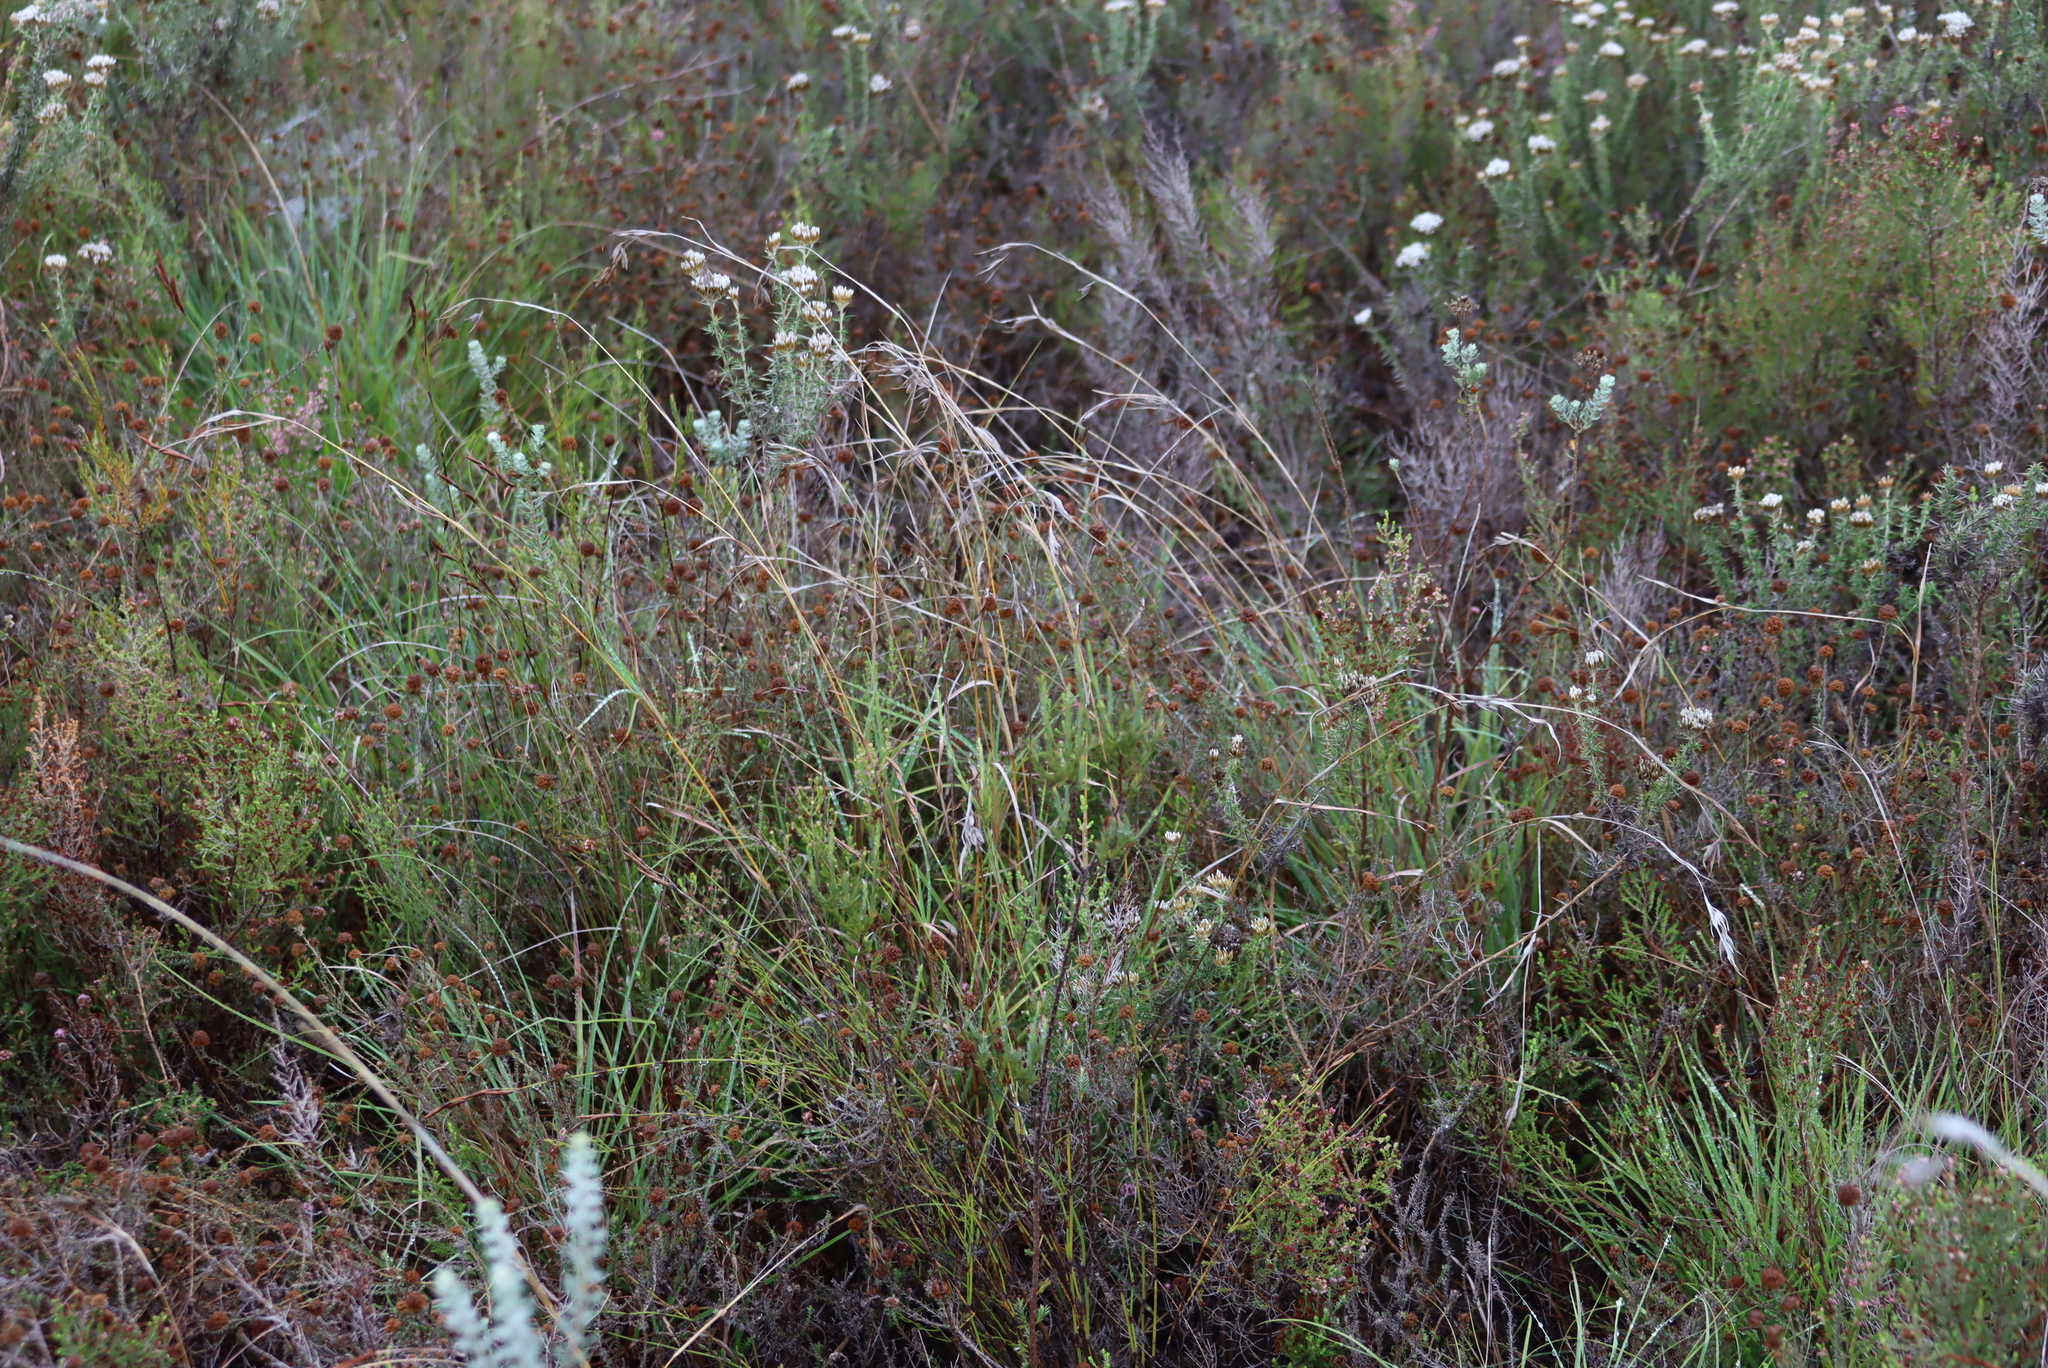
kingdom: Plantae
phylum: Tracheophyta
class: Liliopsida
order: Poales
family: Poaceae
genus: Themeda
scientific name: Themeda triandra
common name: Kangaroo grass
